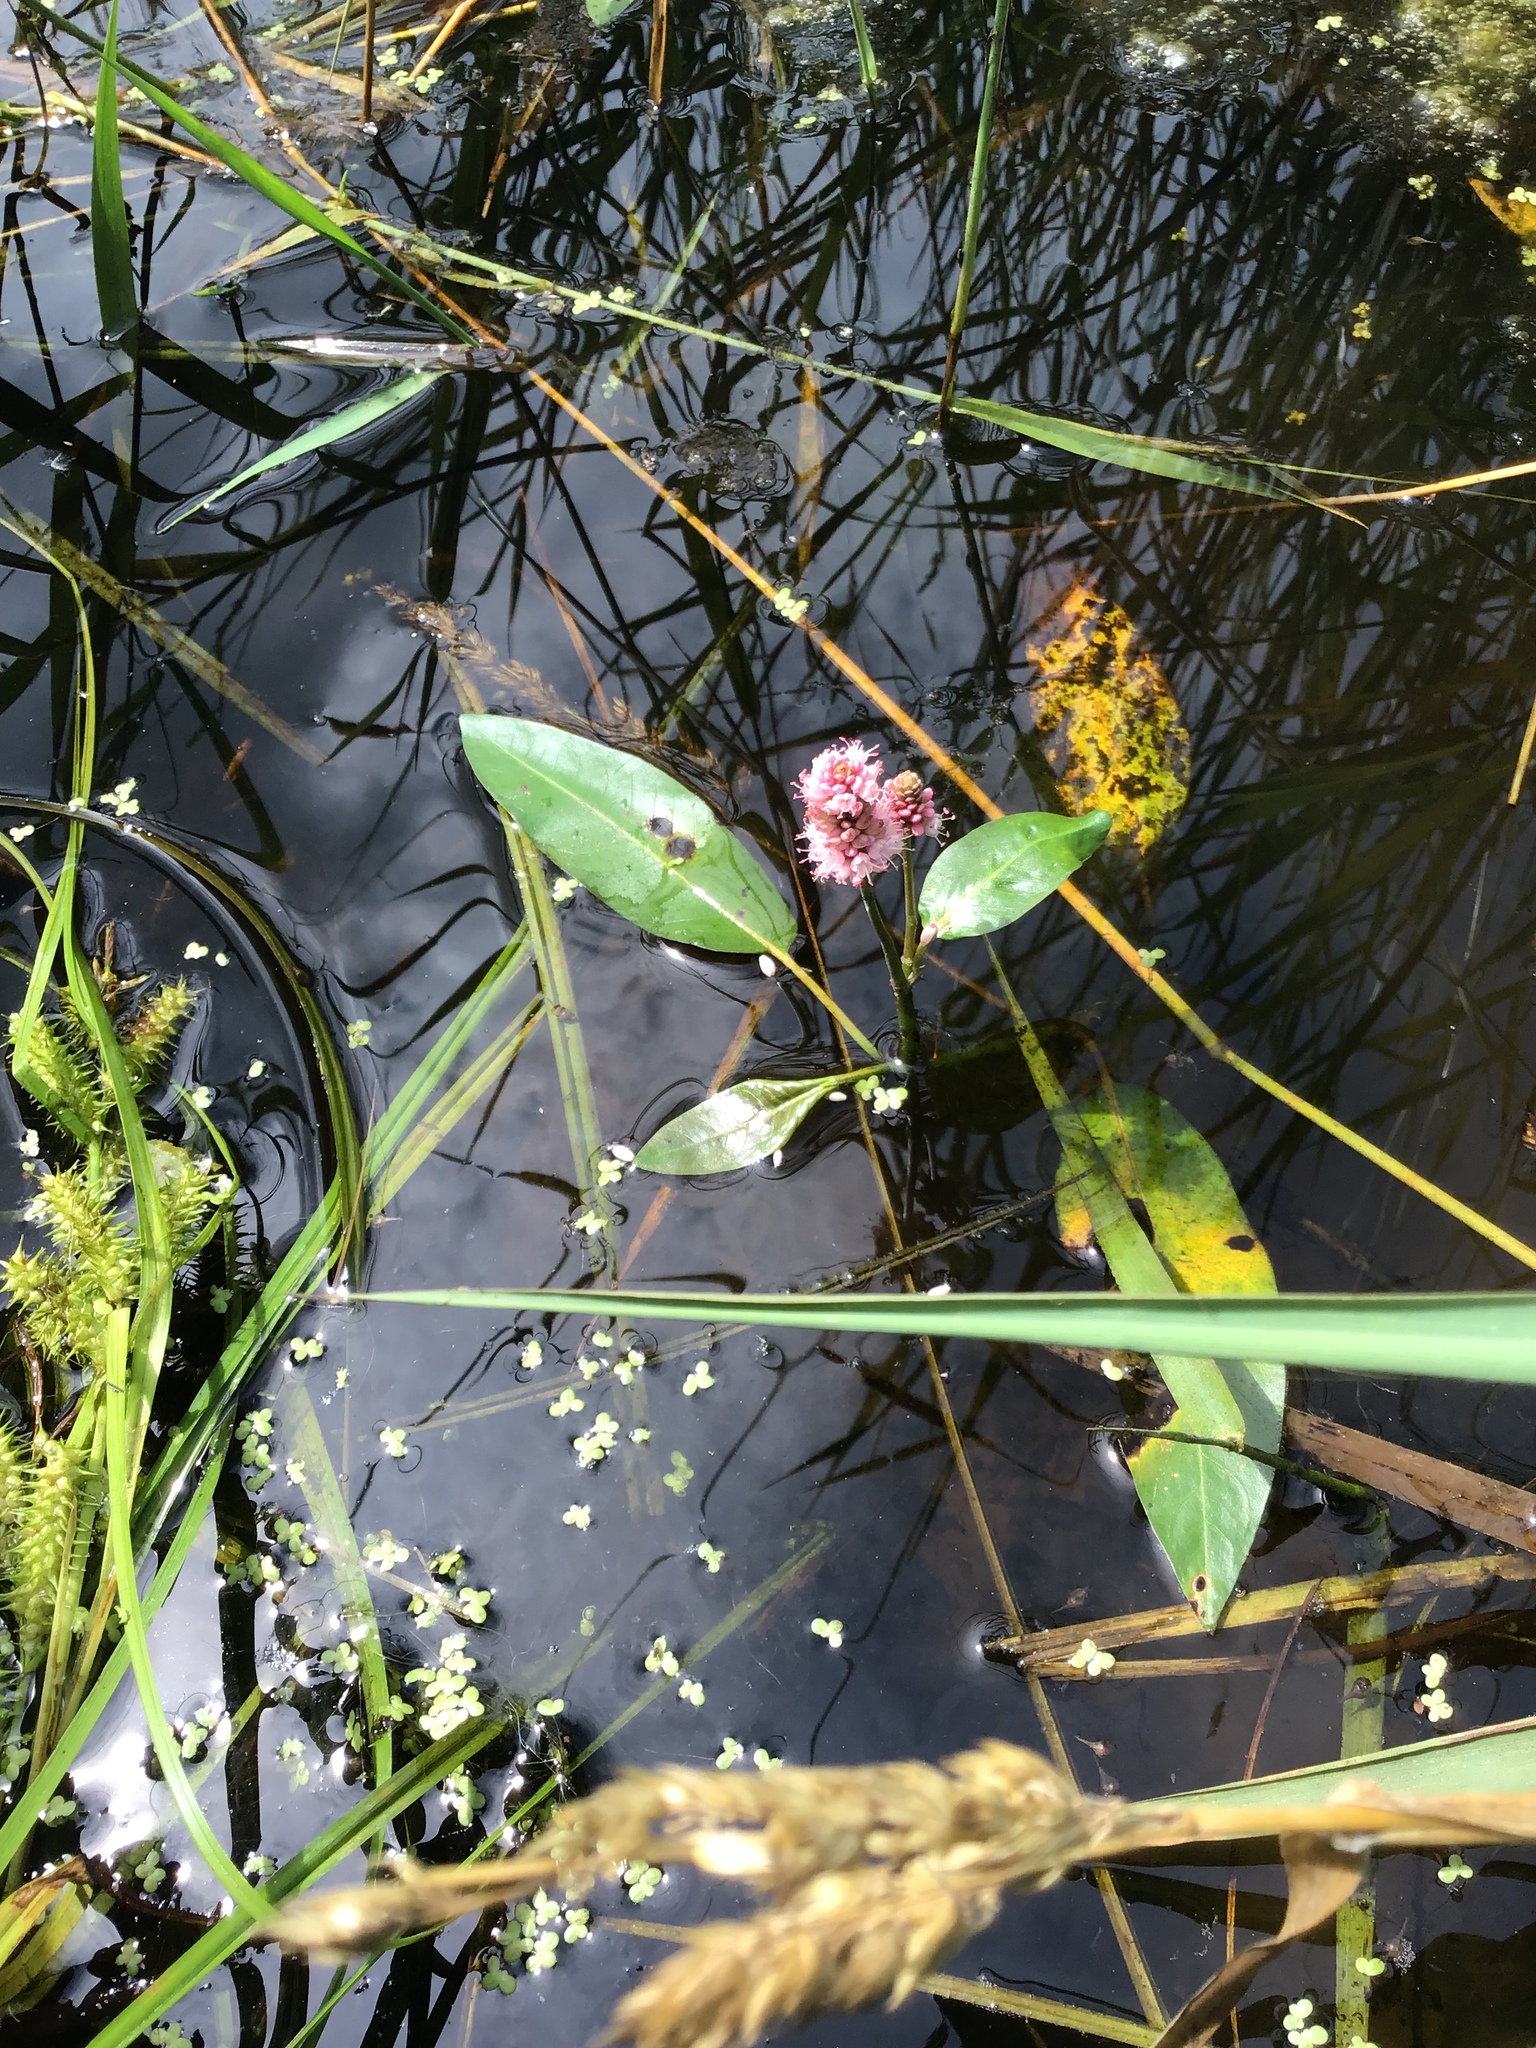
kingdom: Plantae
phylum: Tracheophyta
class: Magnoliopsida
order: Caryophyllales
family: Polygonaceae
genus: Persicaria
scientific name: Persicaria amphibia
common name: Amphibious bistort
